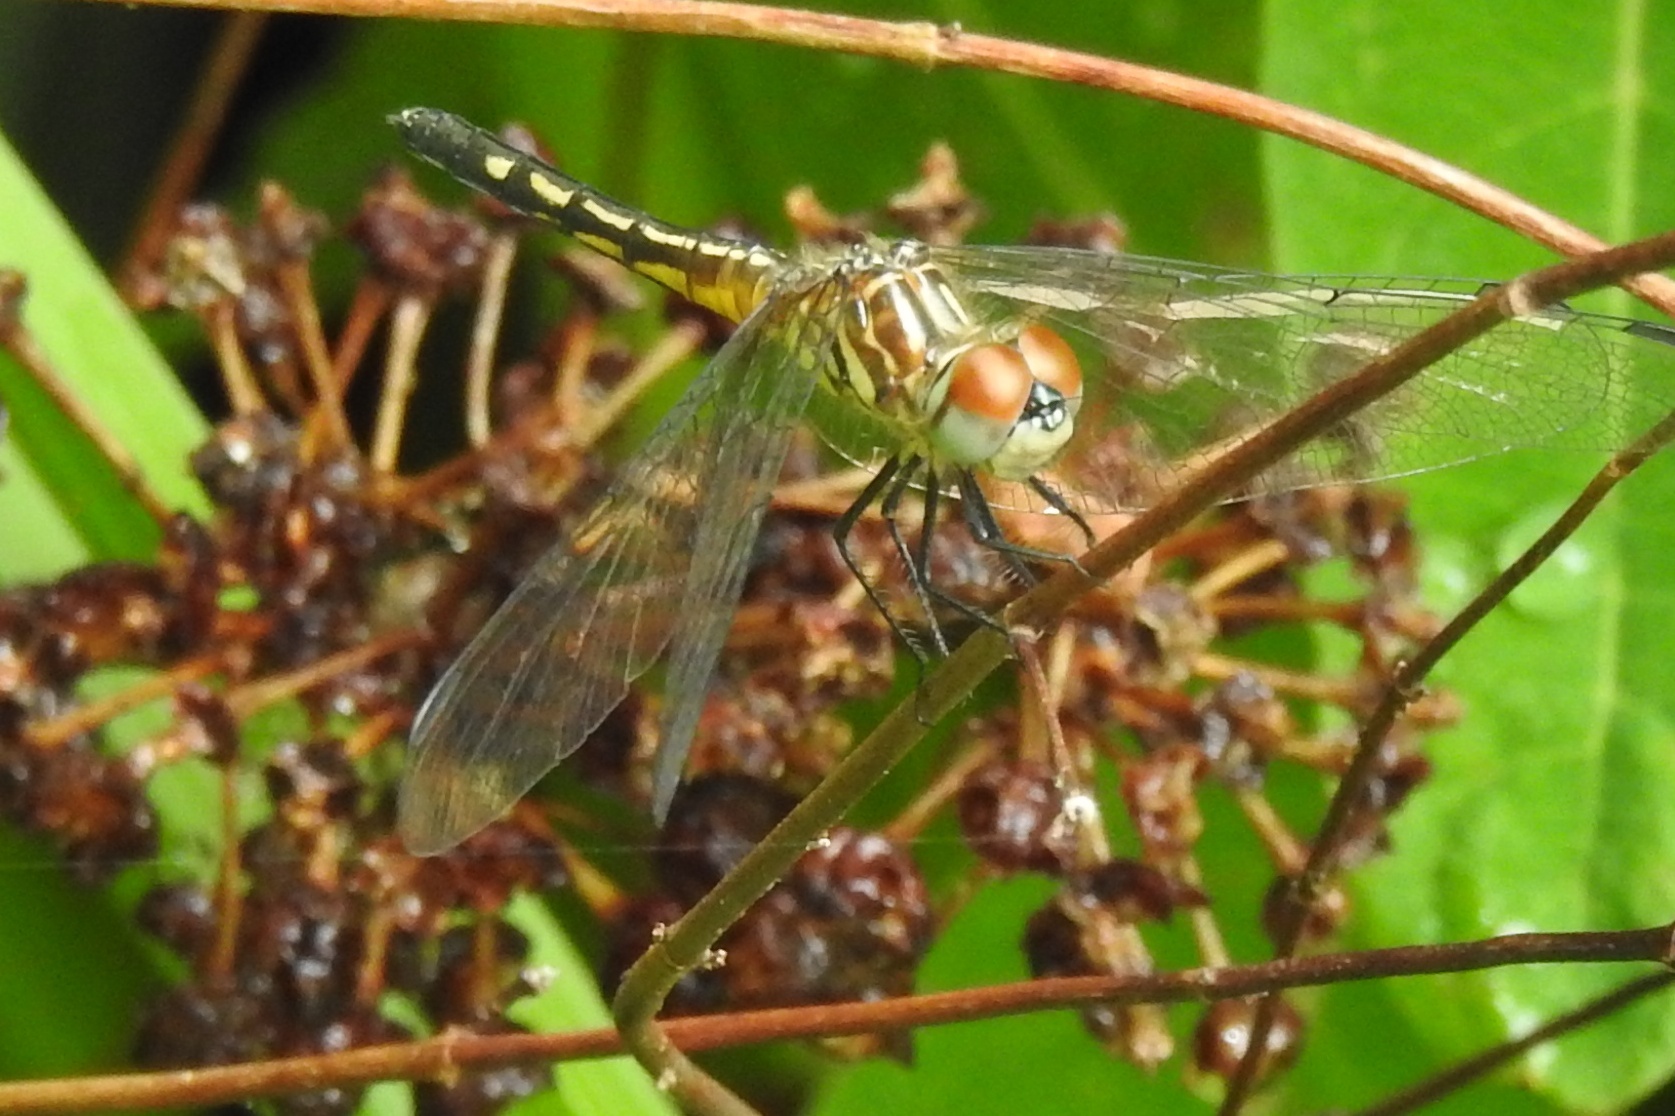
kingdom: Animalia
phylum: Arthropoda
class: Insecta
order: Odonata
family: Libellulidae
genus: Pachydiplax
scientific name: Pachydiplax longipennis
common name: Blue dasher
